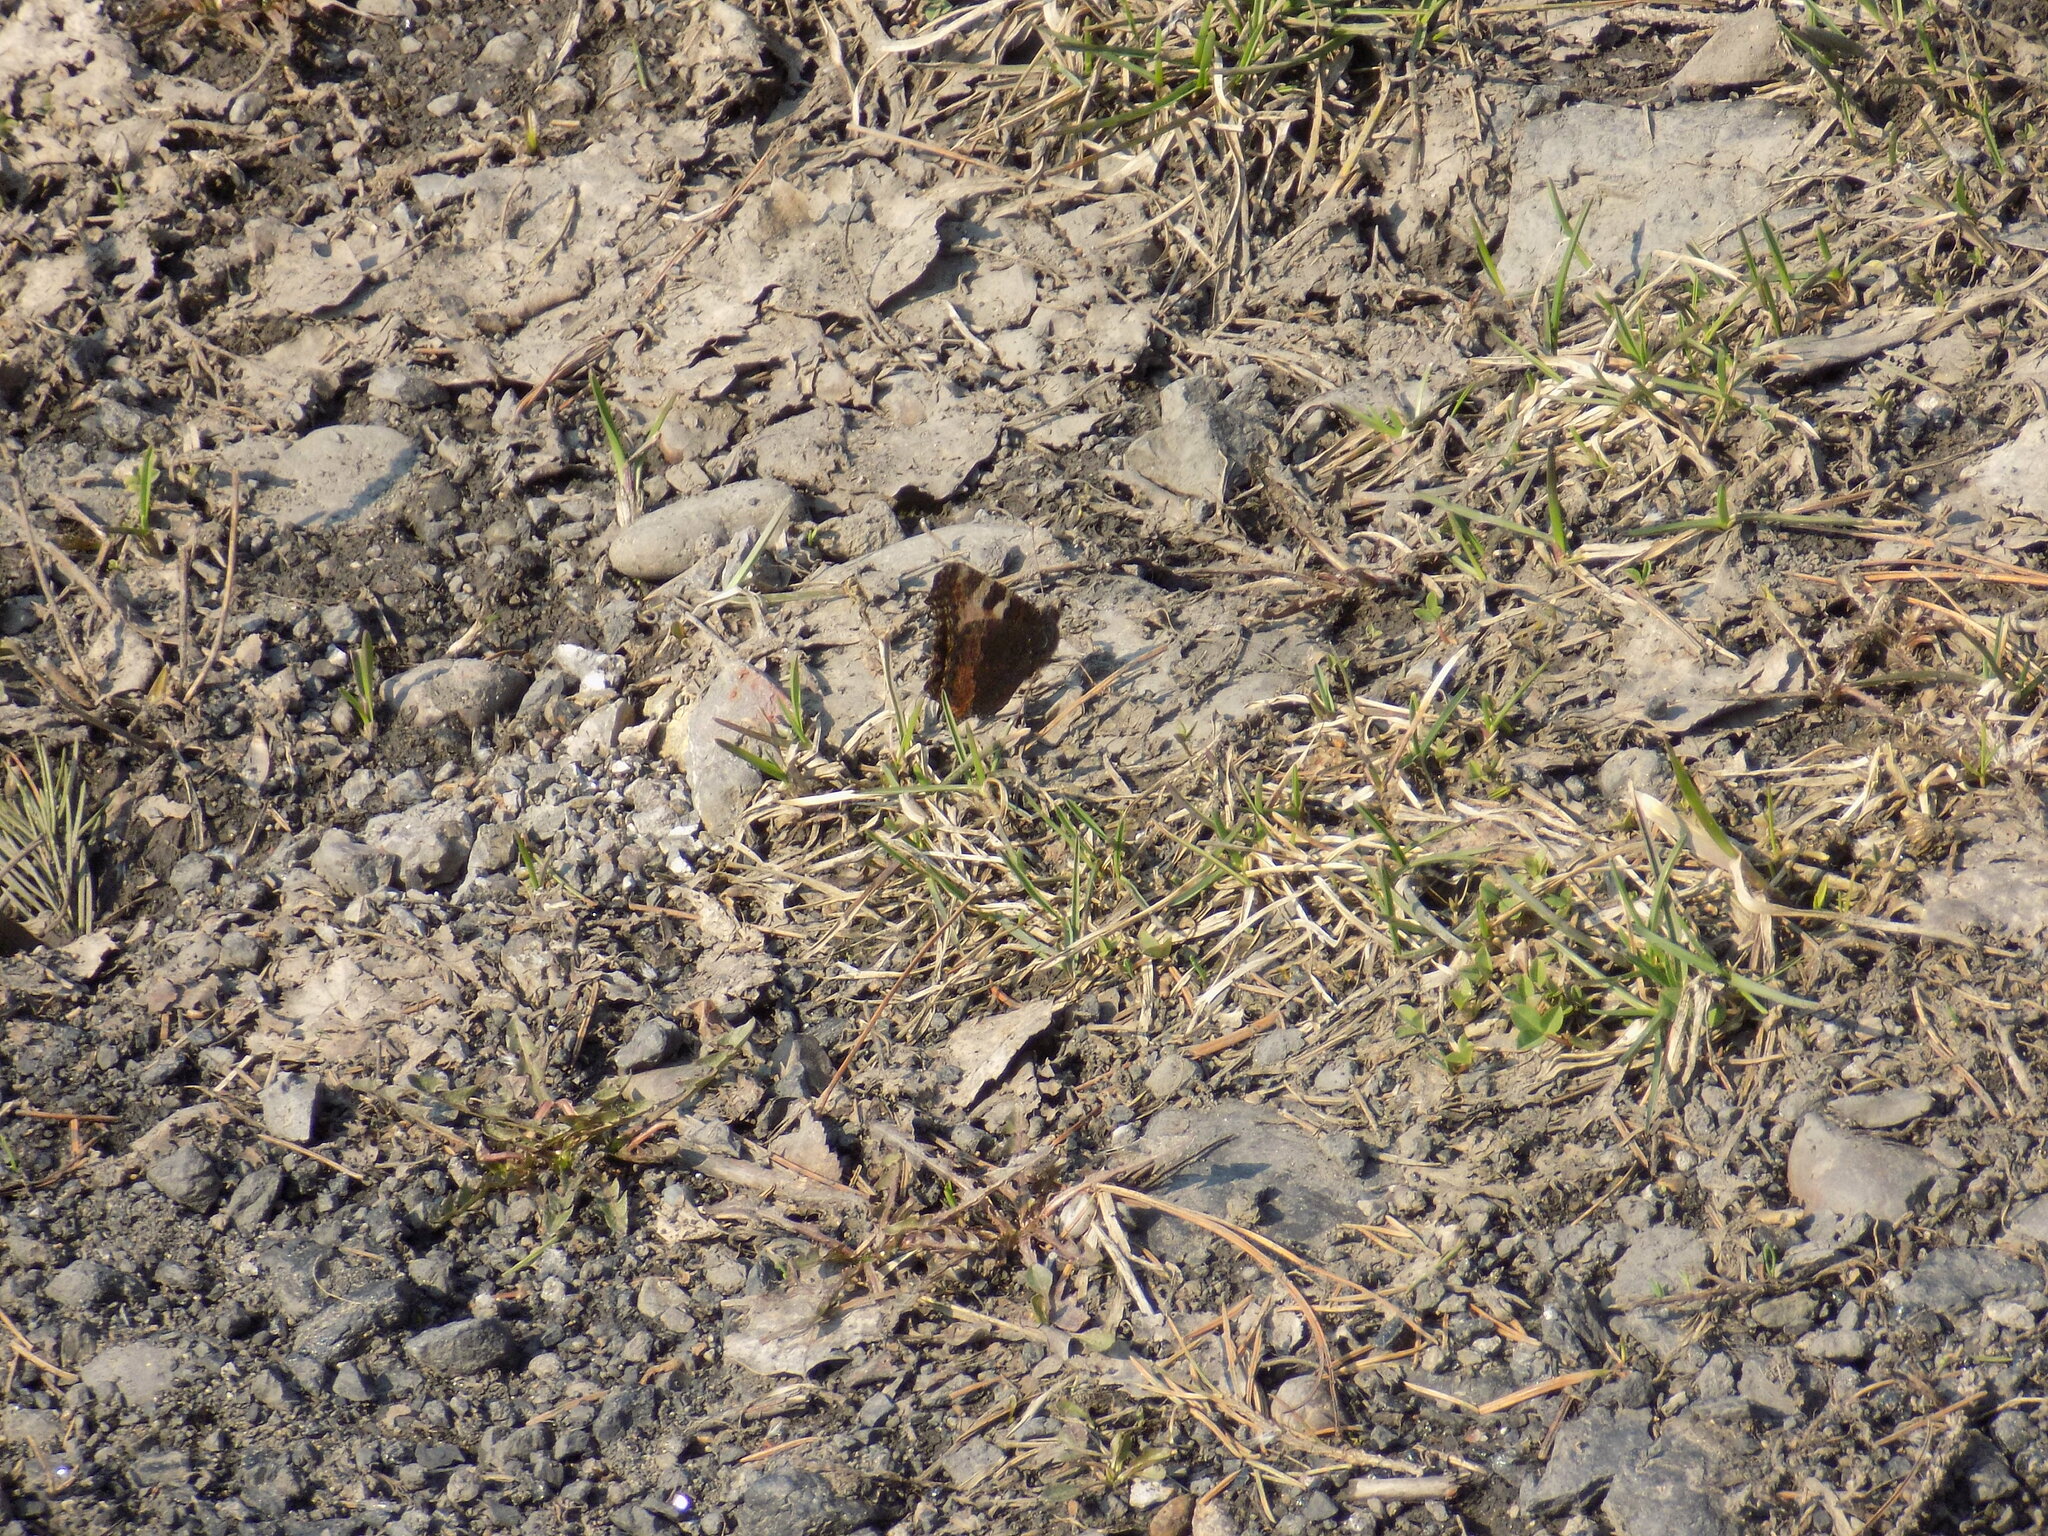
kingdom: Animalia
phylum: Arthropoda
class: Insecta
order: Lepidoptera
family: Nymphalidae
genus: Aglais
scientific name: Aglais urticae
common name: Small tortoiseshell
